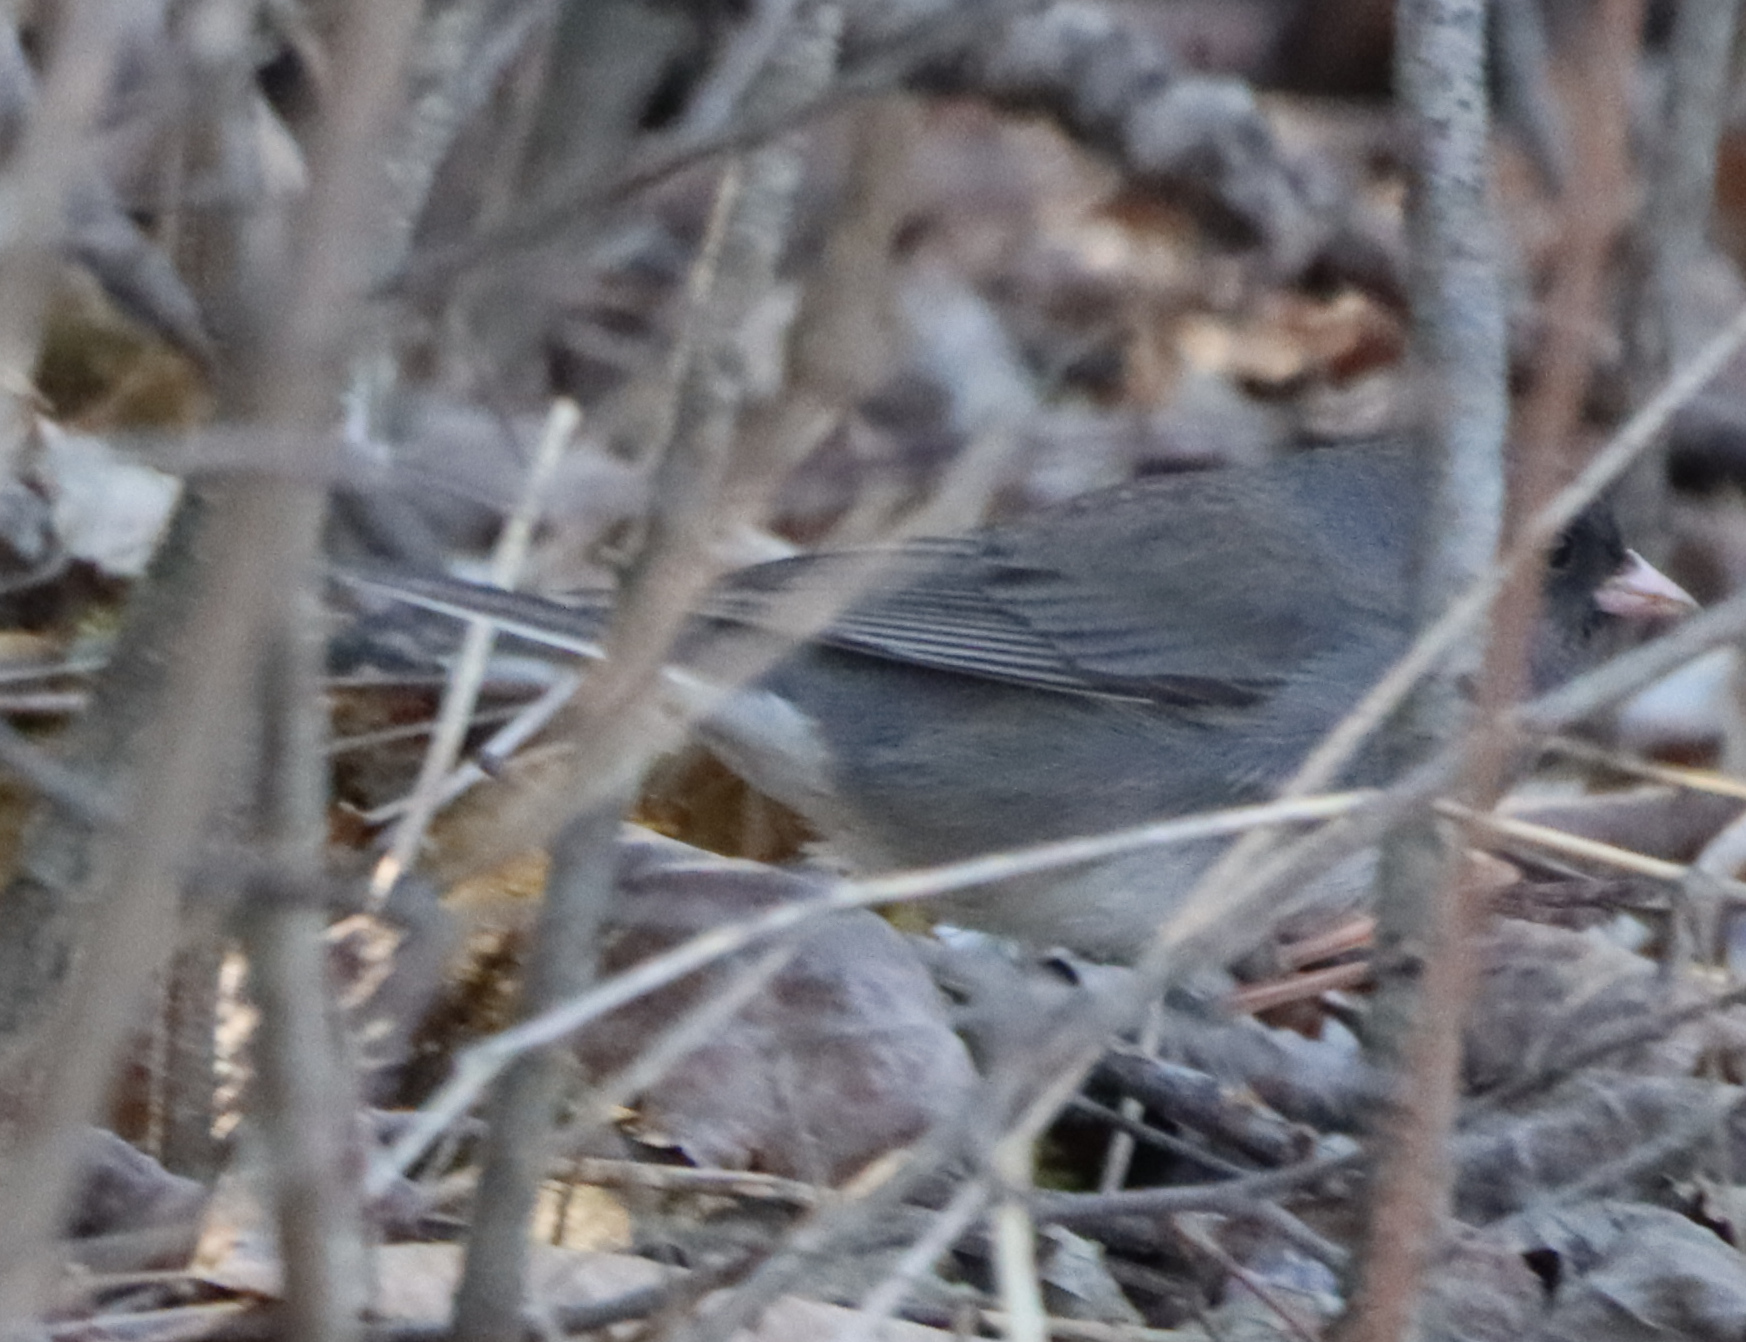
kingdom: Animalia
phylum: Chordata
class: Aves
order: Passeriformes
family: Passerellidae
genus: Junco
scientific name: Junco hyemalis
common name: Dark-eyed junco
